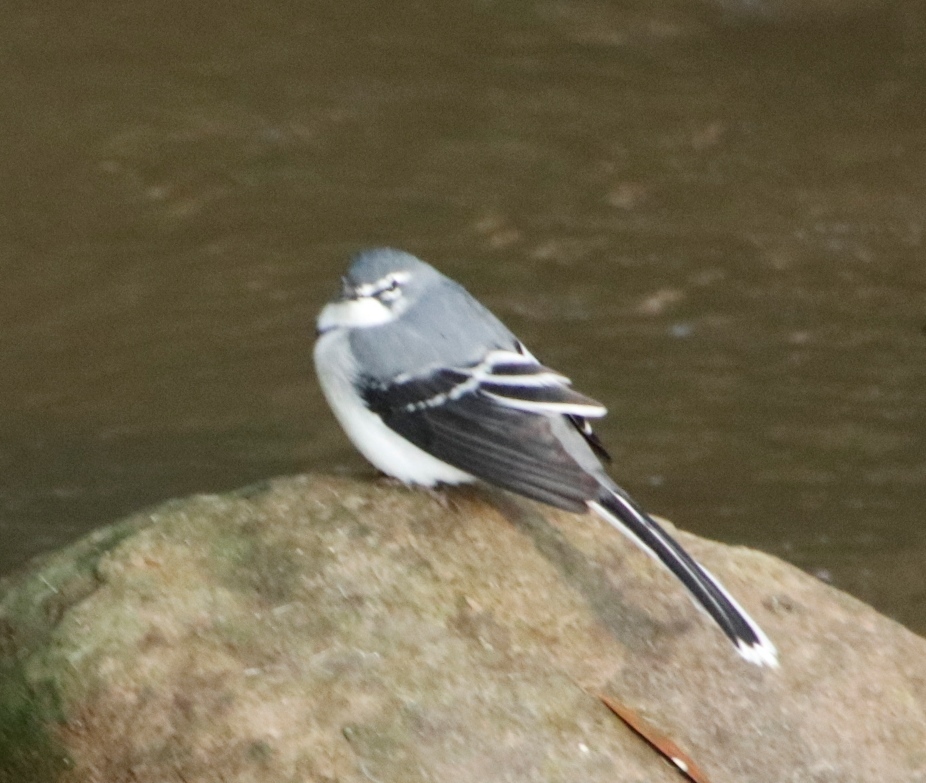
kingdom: Animalia
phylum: Chordata
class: Aves
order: Passeriformes
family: Motacillidae
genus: Motacilla
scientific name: Motacilla aguimp
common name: African pied wagtail
